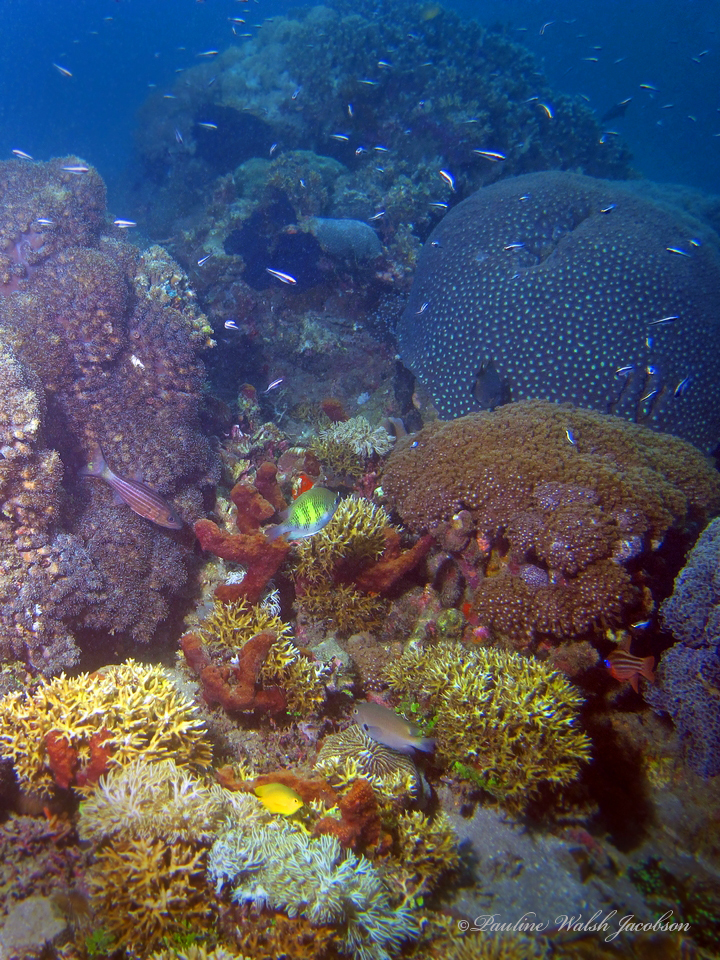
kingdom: Animalia
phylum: Chordata
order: Perciformes
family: Pomacentridae
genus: Amblyglyphidodon
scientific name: Amblyglyphidodon curacao
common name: Staghorn damsel
